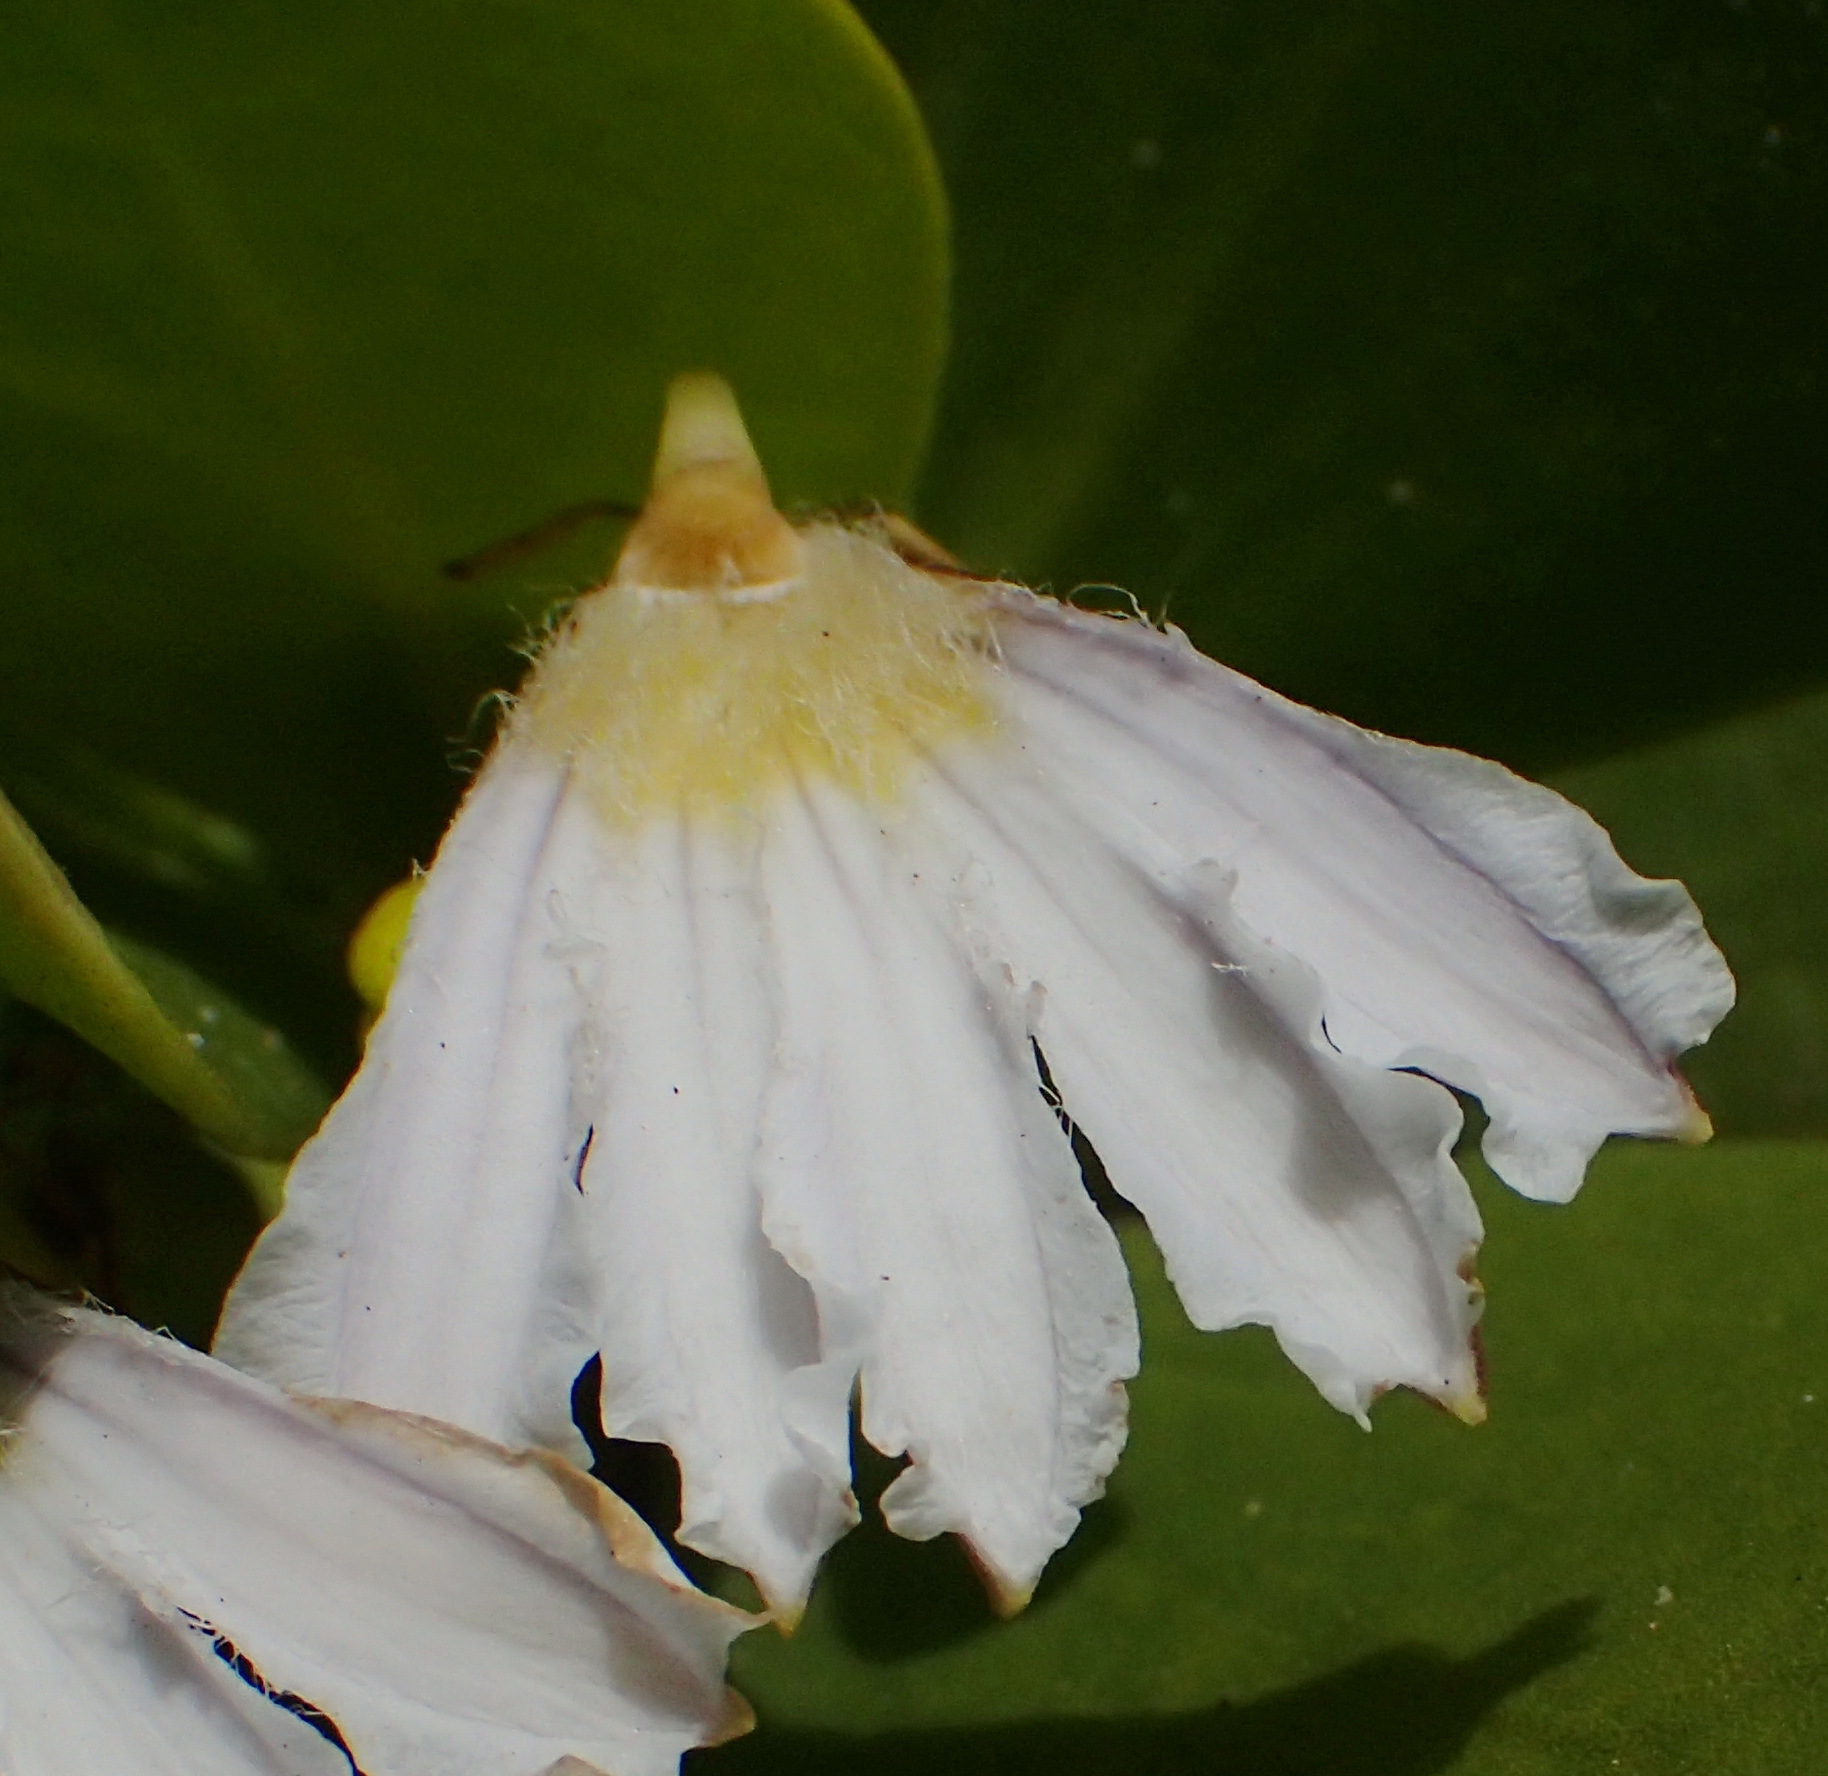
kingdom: Plantae
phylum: Tracheophyta
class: Magnoliopsida
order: Asterales
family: Goodeniaceae
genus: Scaevola
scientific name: Scaevola plumieri
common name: Gull feed
